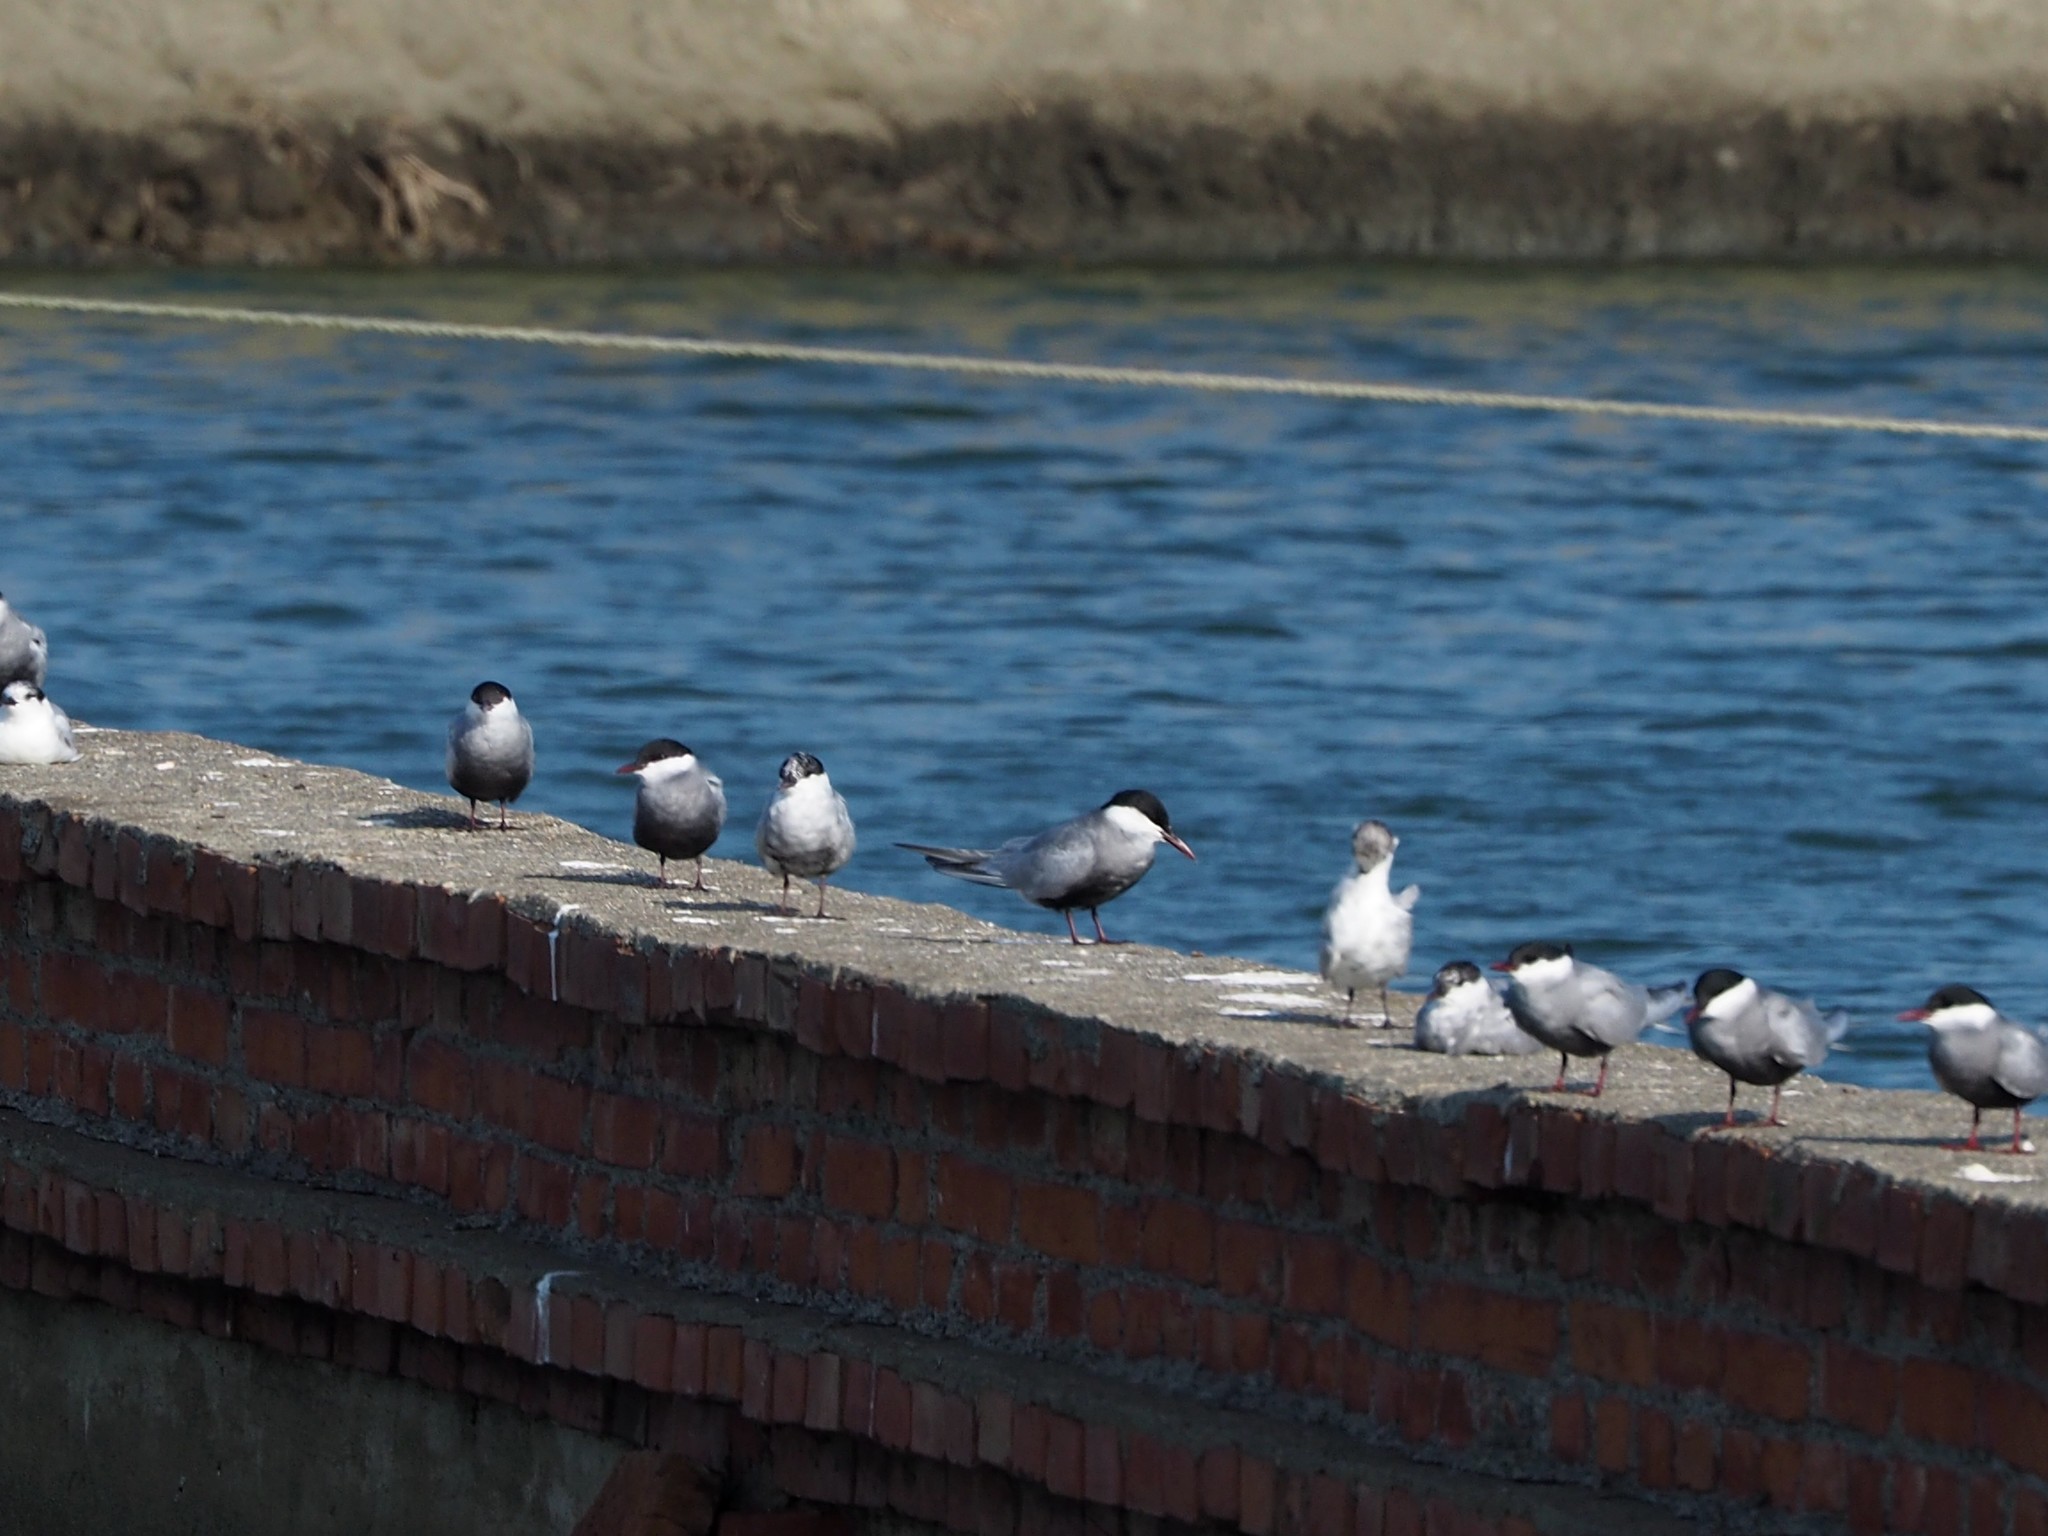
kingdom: Animalia
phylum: Chordata
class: Aves
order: Charadriiformes
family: Laridae
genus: Chlidonias
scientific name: Chlidonias hybrida
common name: Whiskered tern
